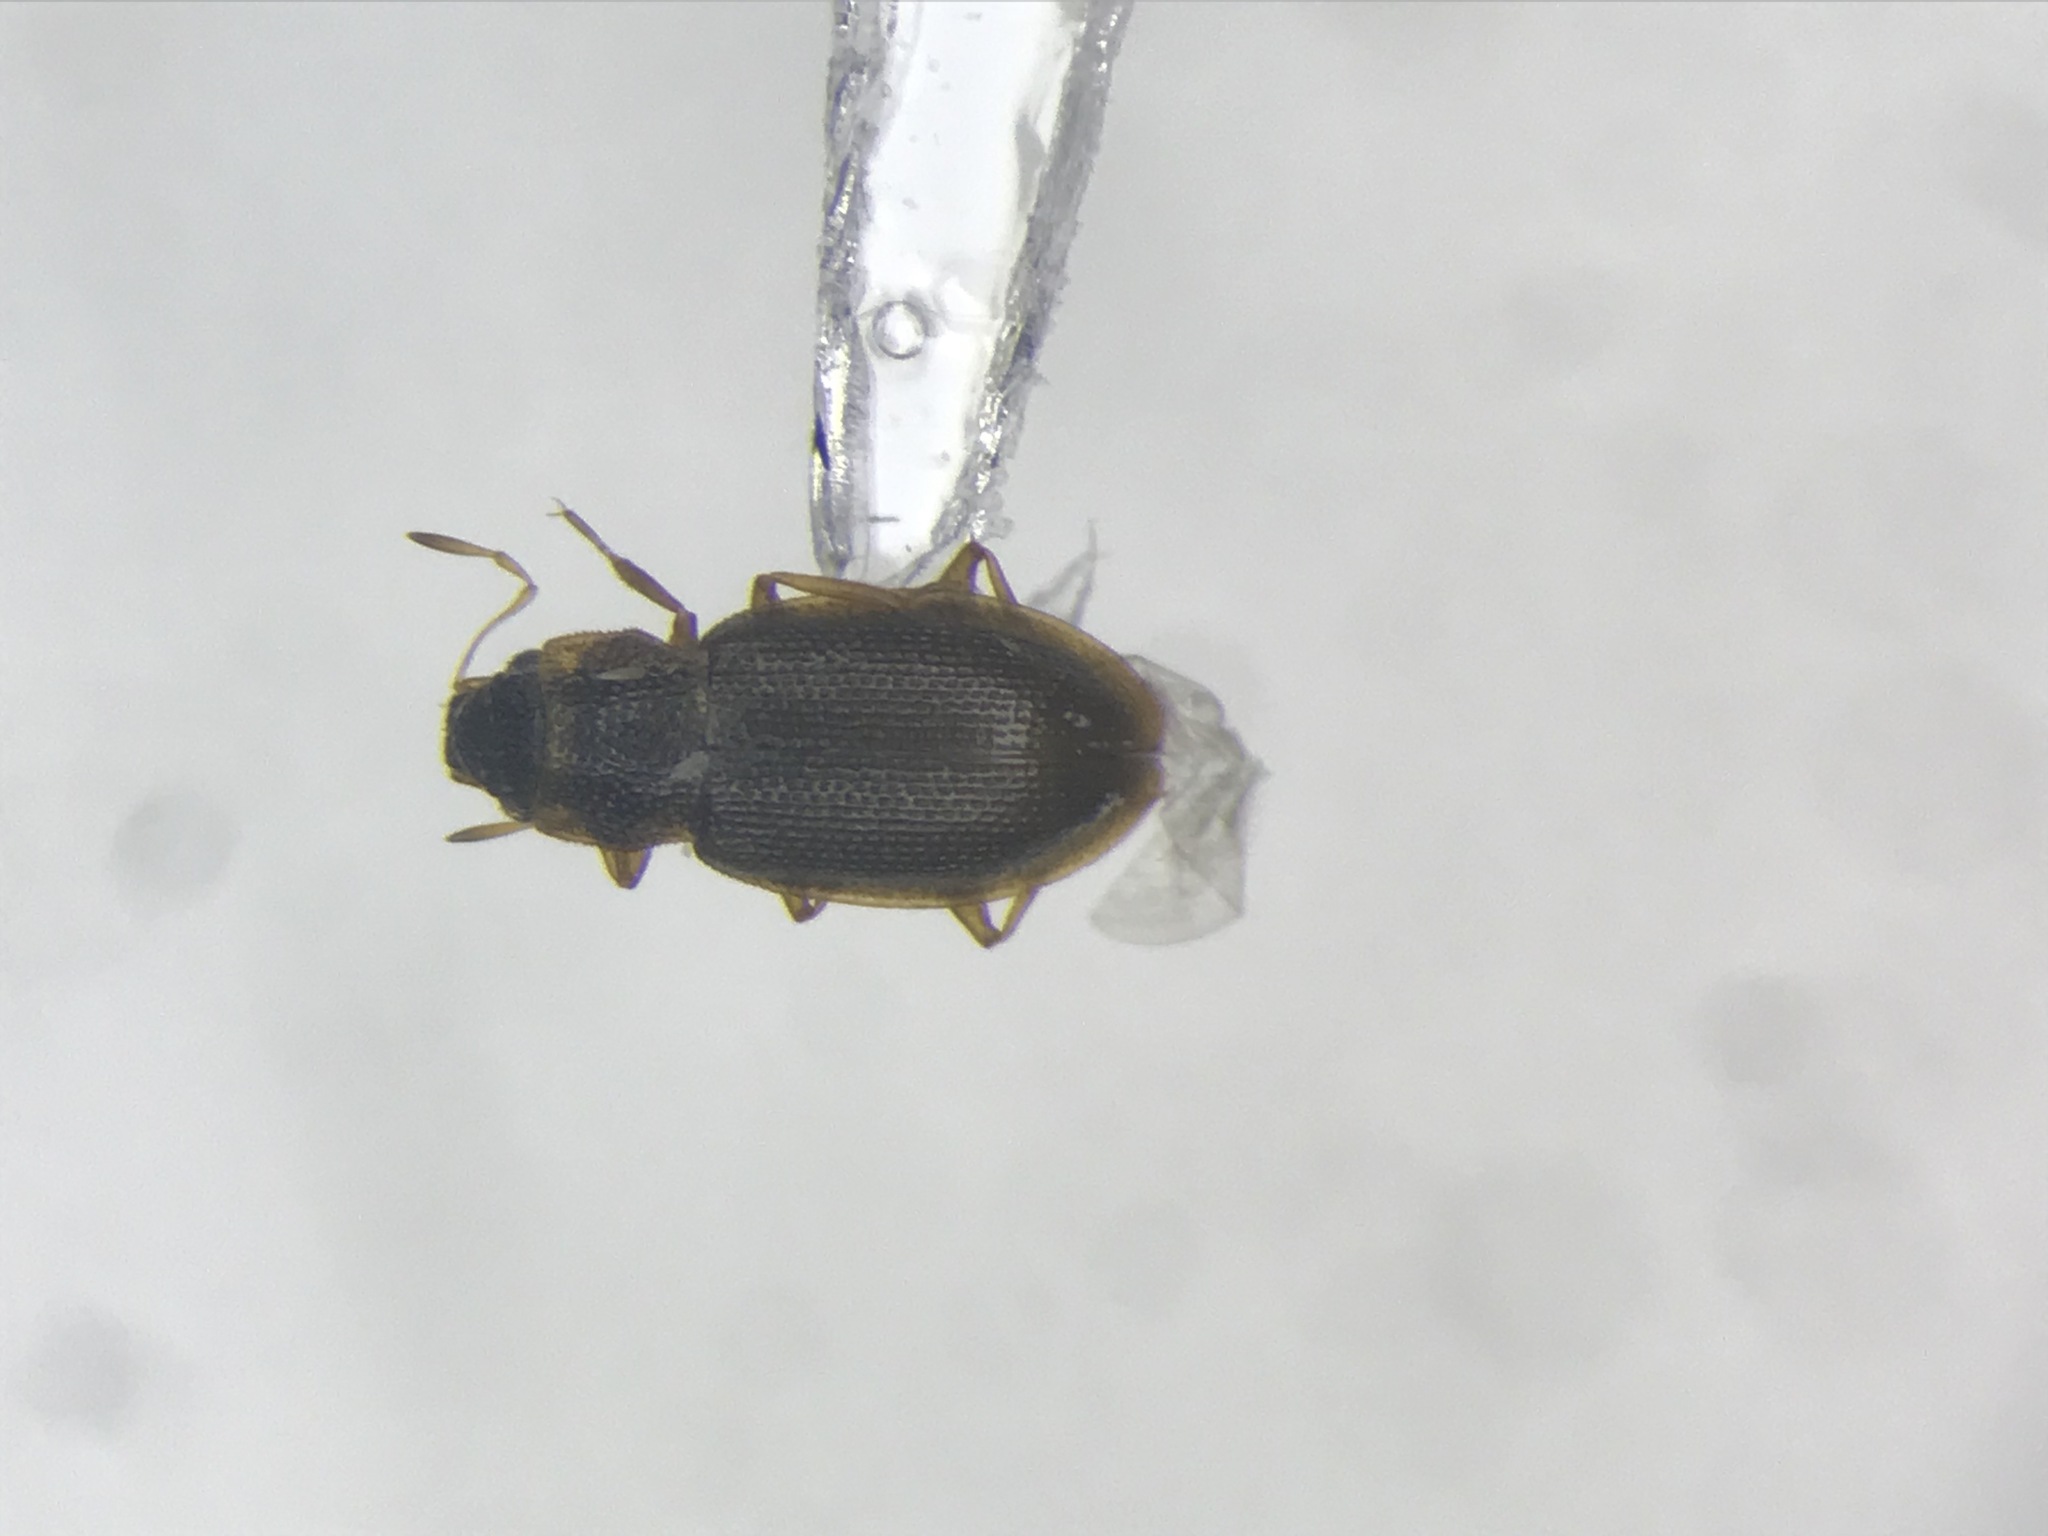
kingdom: Animalia
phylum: Arthropoda
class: Insecta
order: Coleoptera
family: Hydraenidae
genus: Hydraena
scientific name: Hydraena
